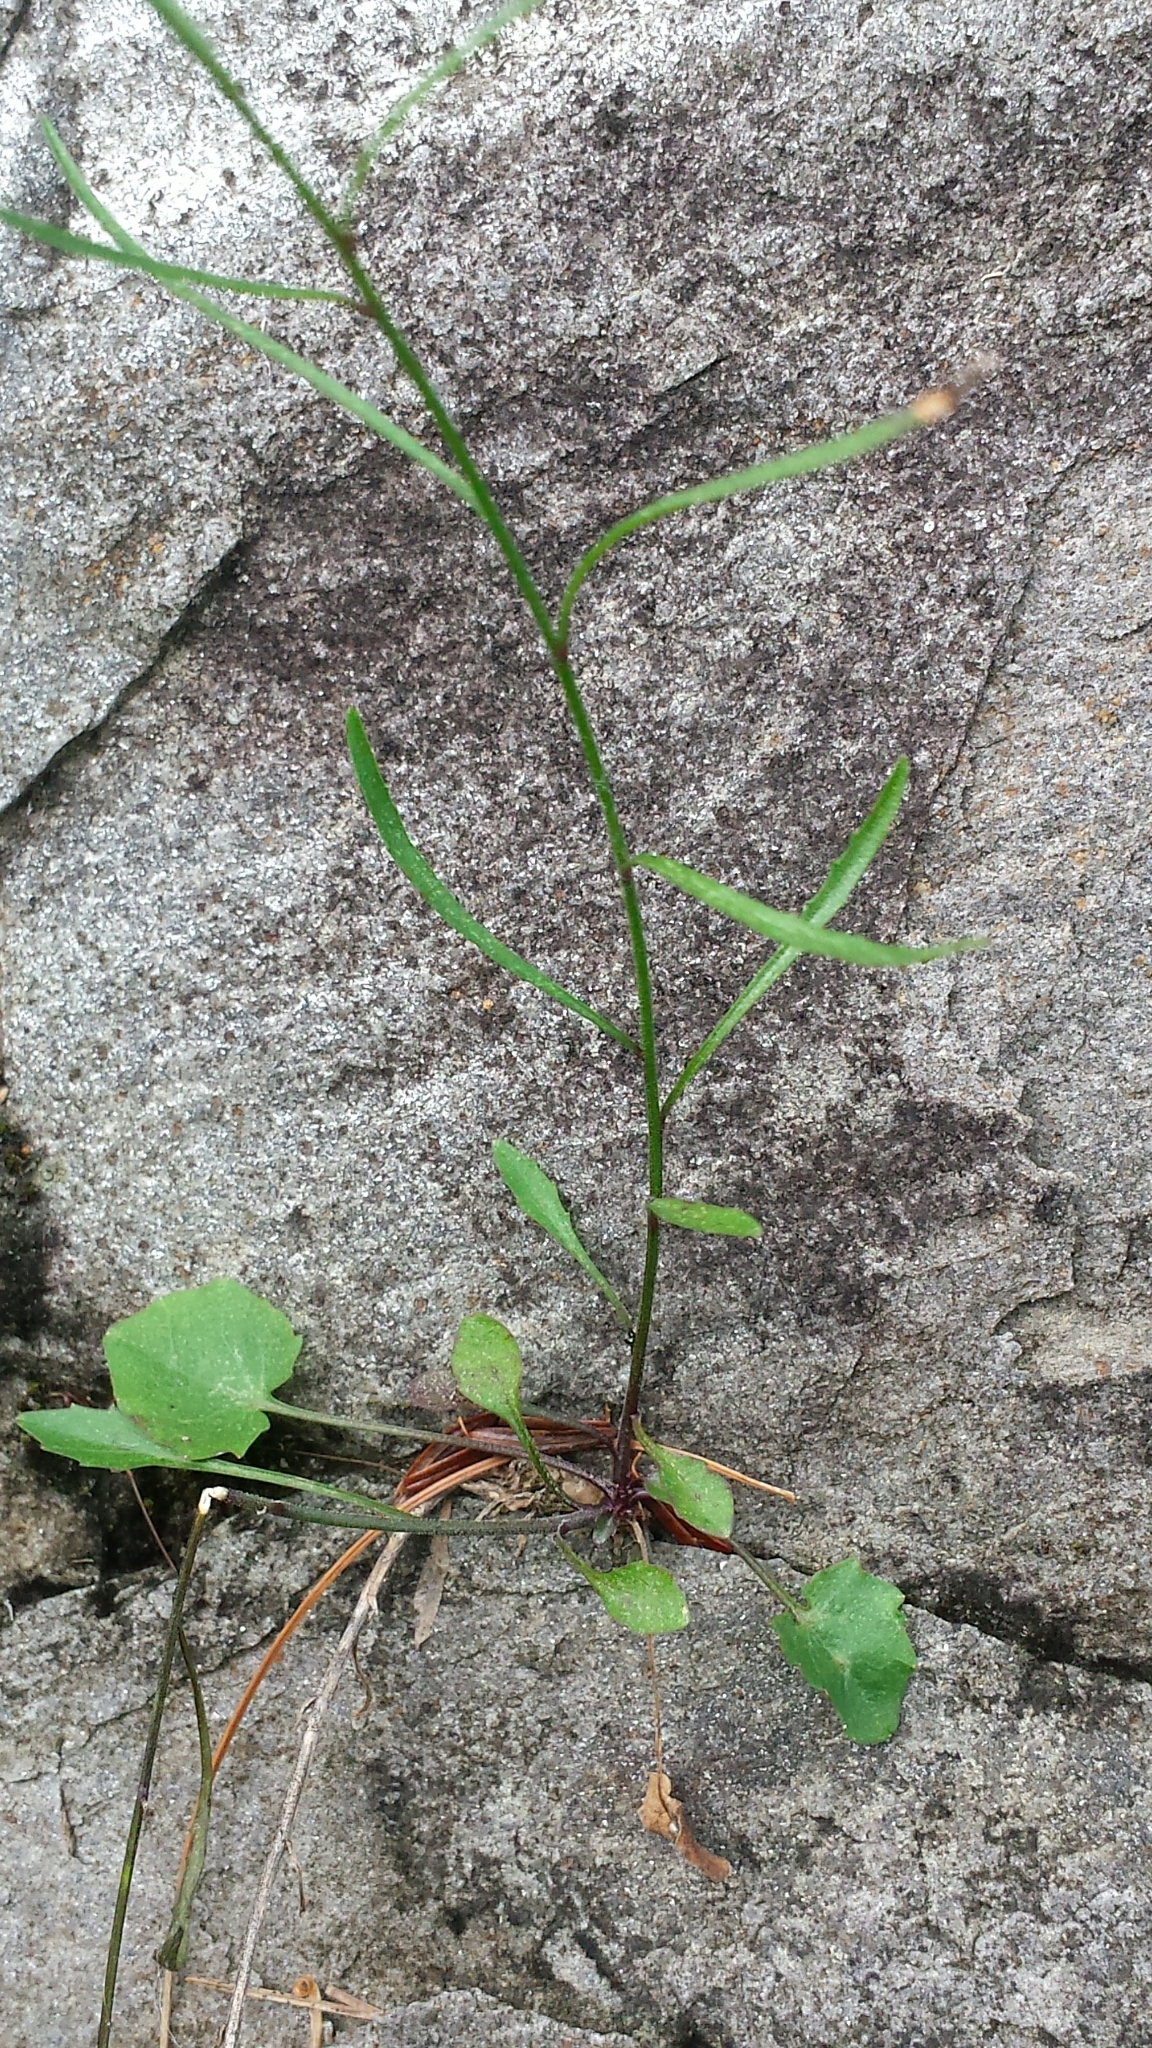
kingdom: Plantae
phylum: Tracheophyta
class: Magnoliopsida
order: Asterales
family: Campanulaceae
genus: Campanula
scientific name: Campanula intercedens
